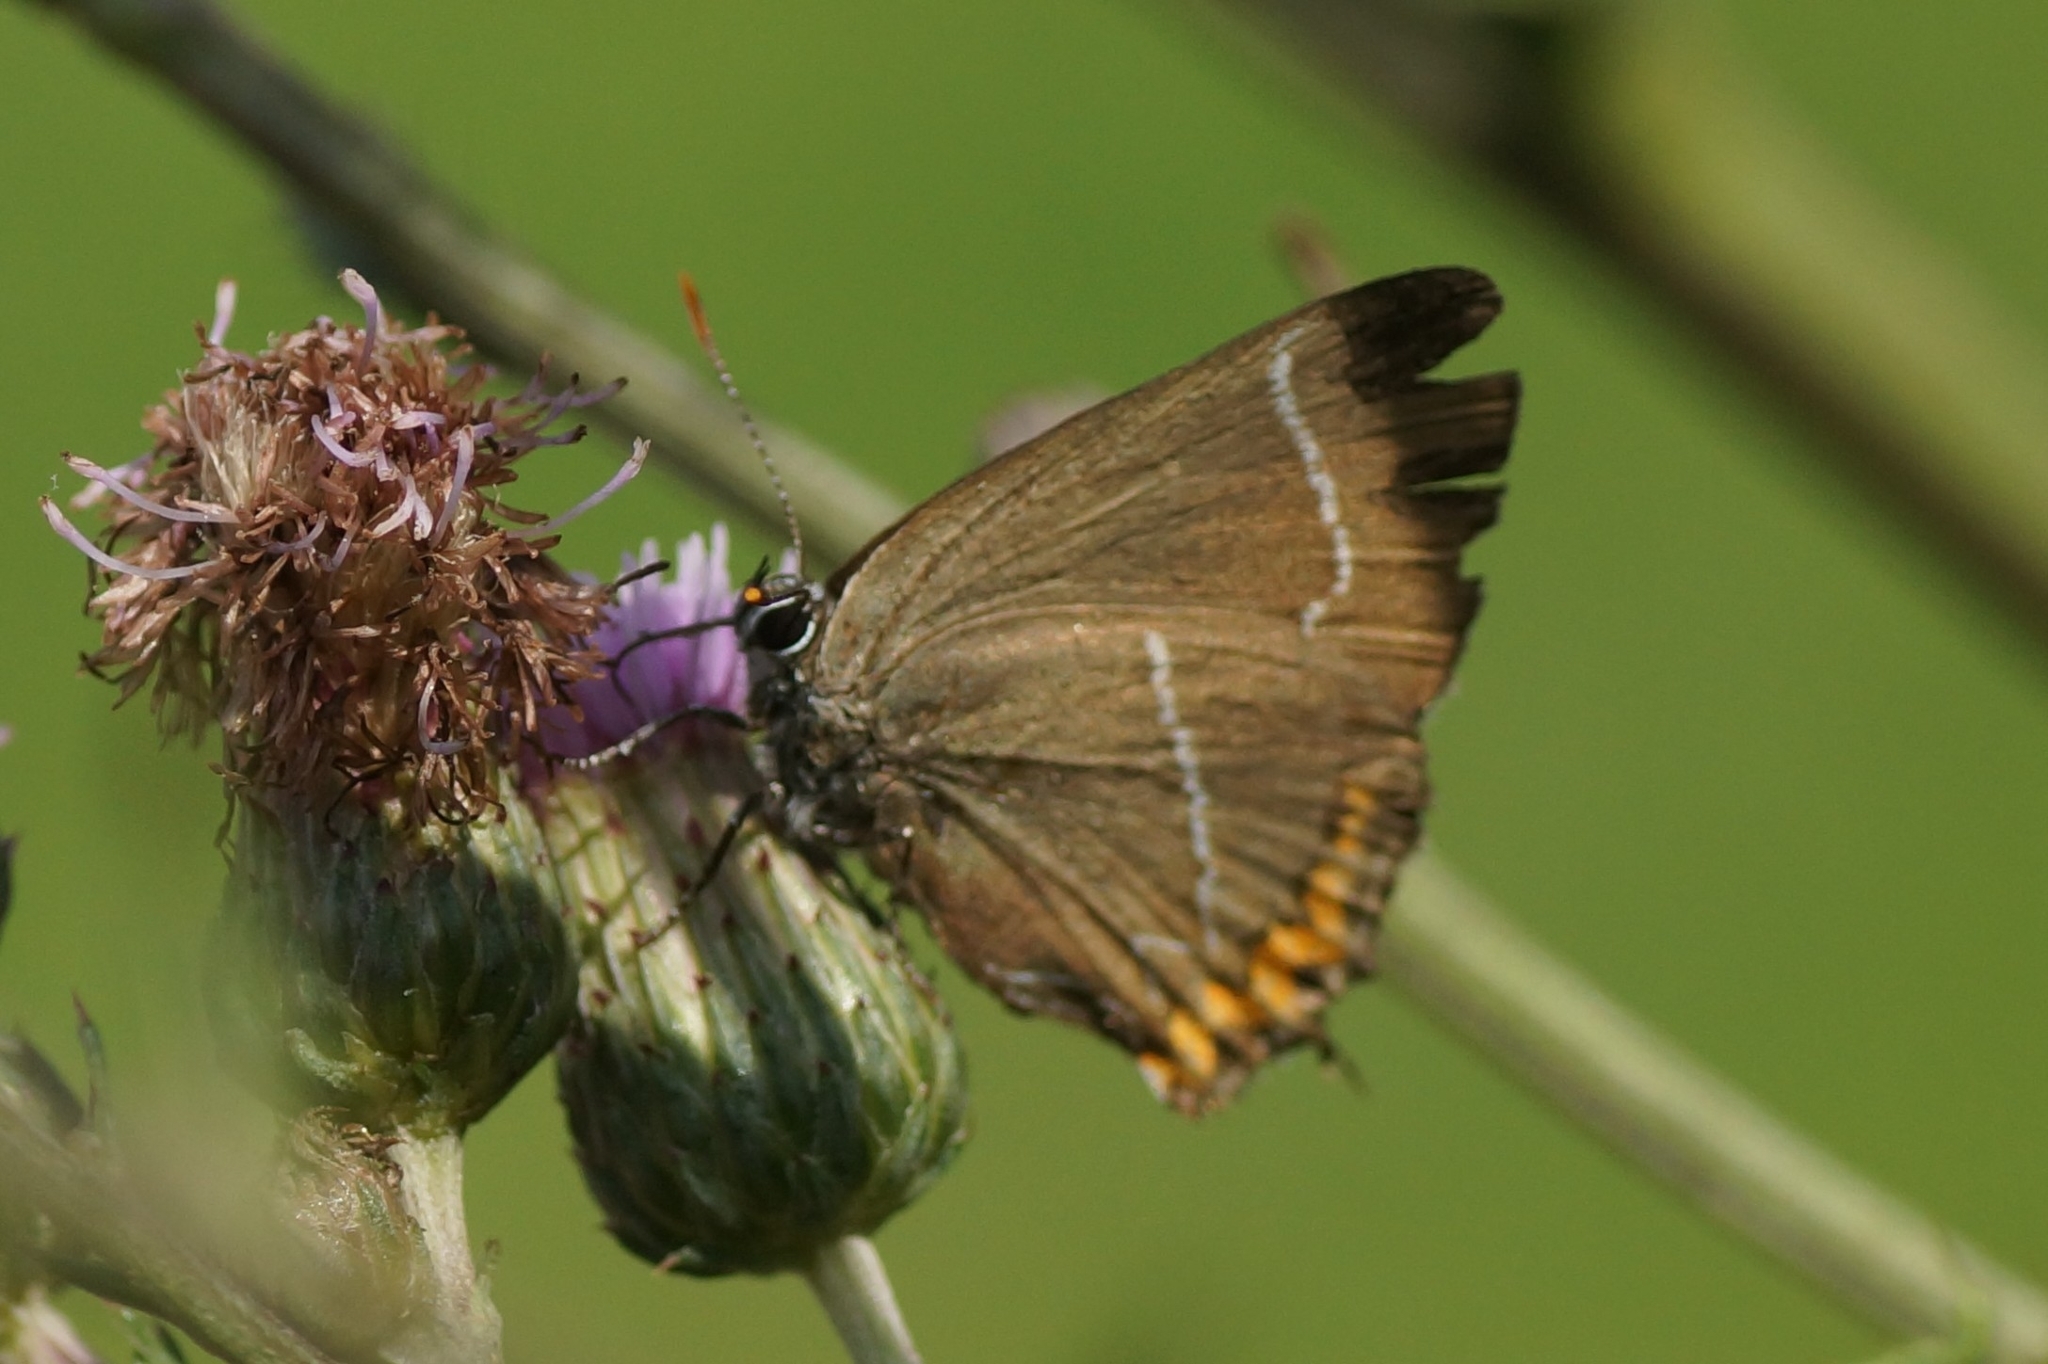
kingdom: Animalia
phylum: Arthropoda
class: Insecta
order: Lepidoptera
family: Lycaenidae
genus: Satyrium
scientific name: Satyrium w-album
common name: White-letter hairstreak
